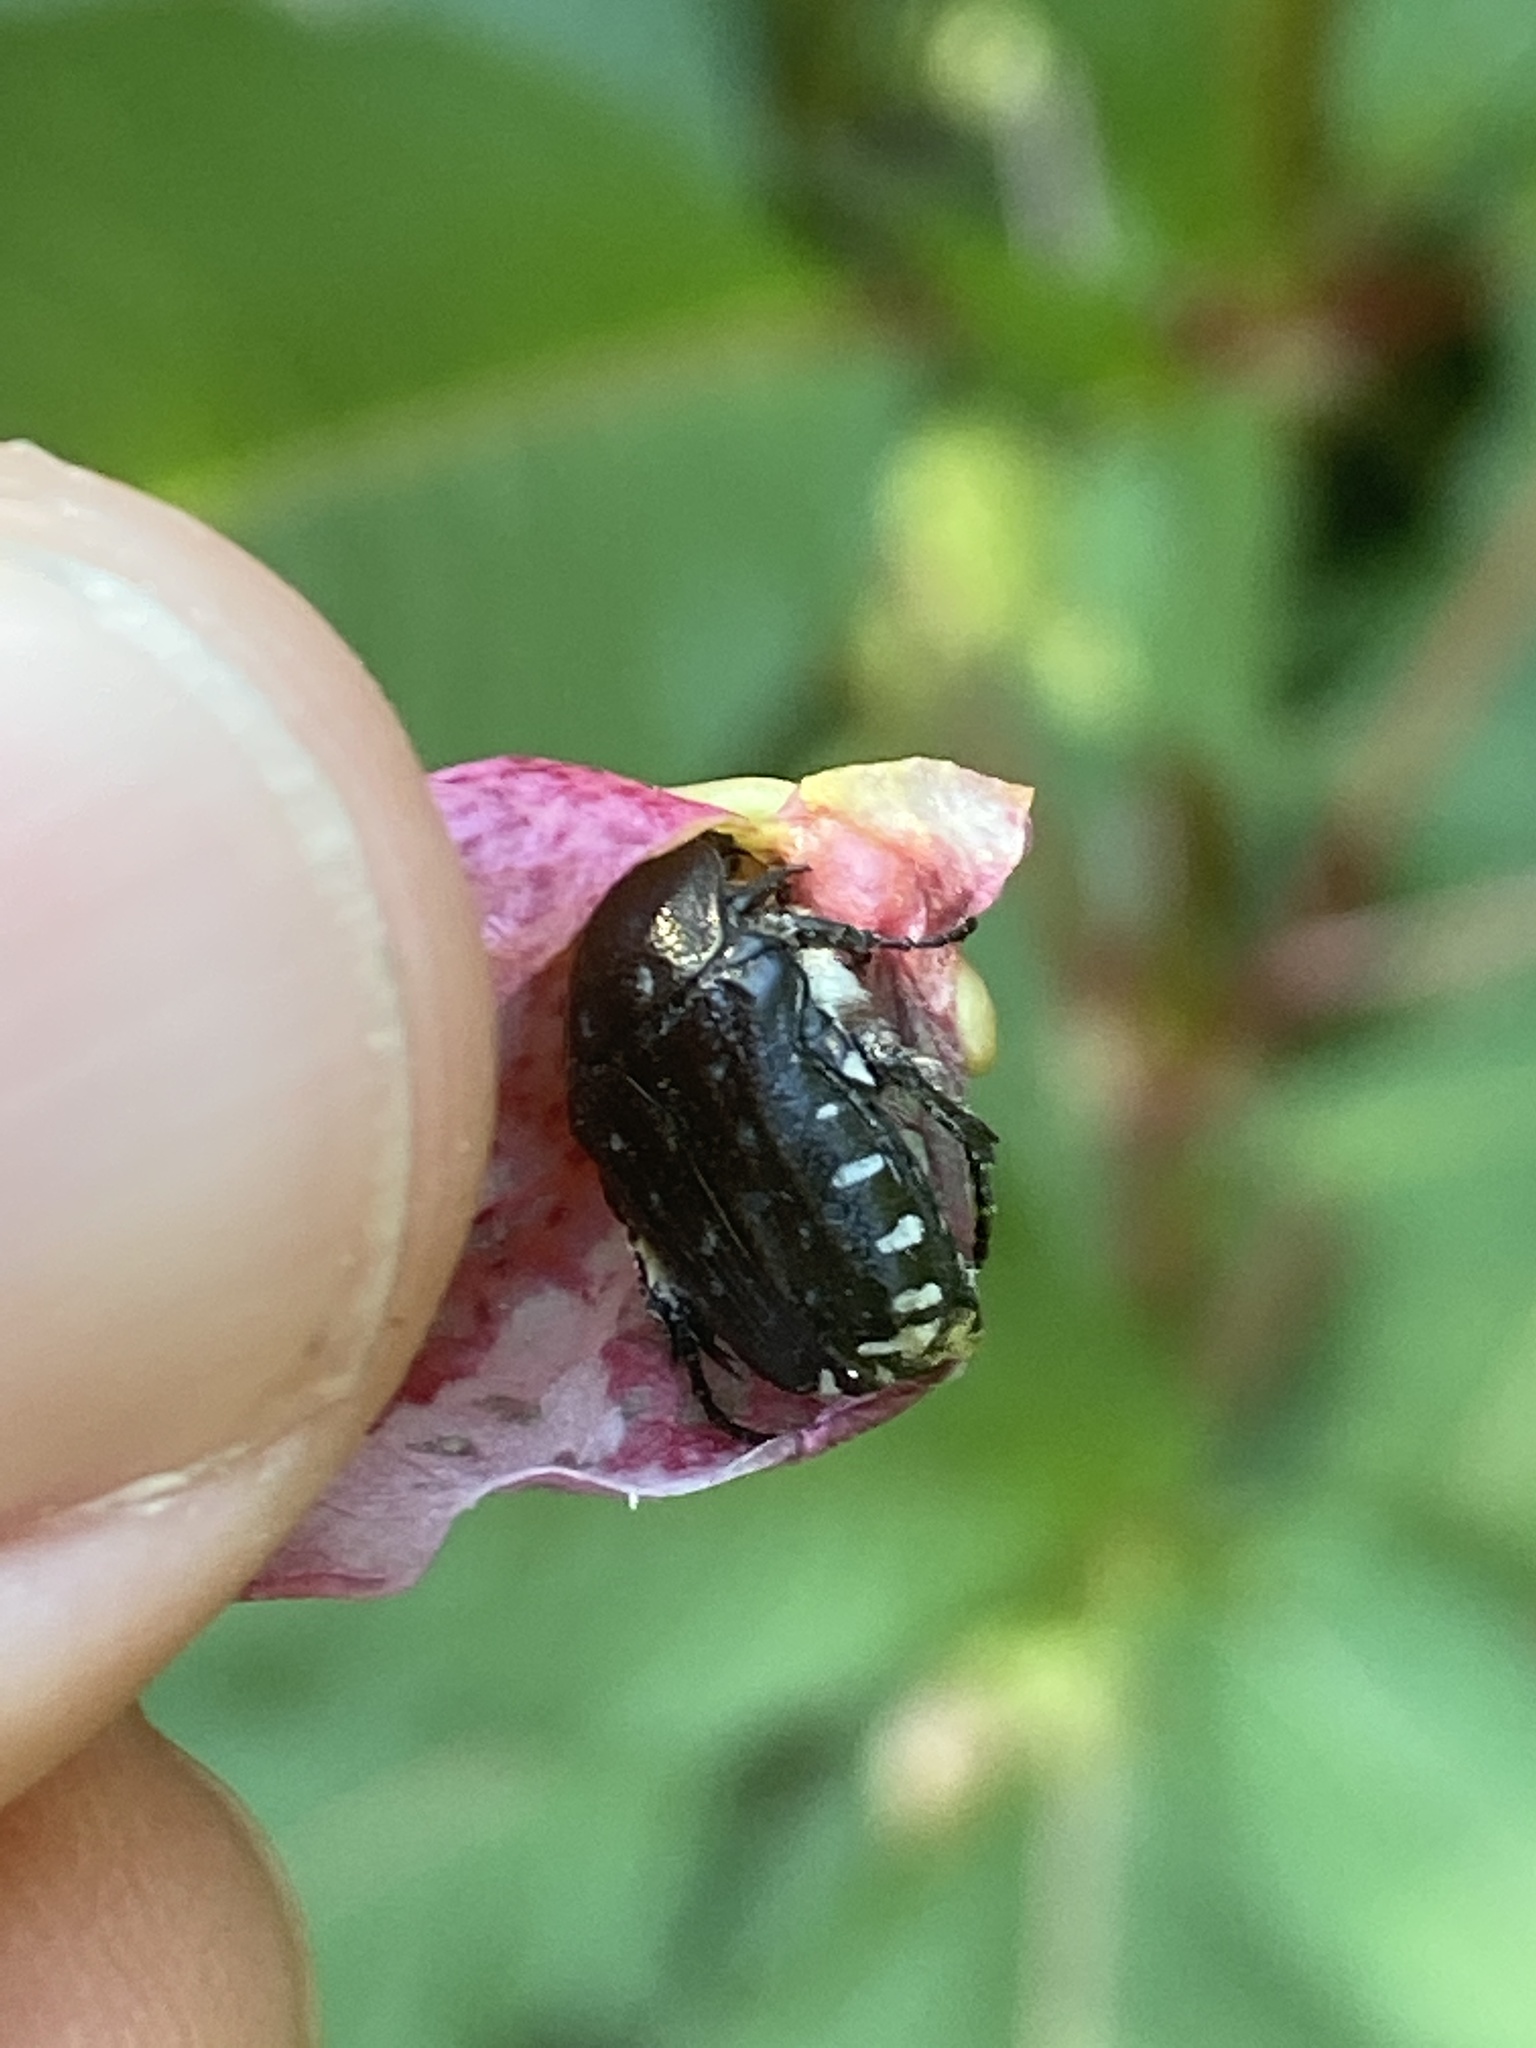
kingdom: Animalia
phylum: Arthropoda
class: Insecta
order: Coleoptera
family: Scarabaeidae
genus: Oxythyrea
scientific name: Oxythyrea funesta
